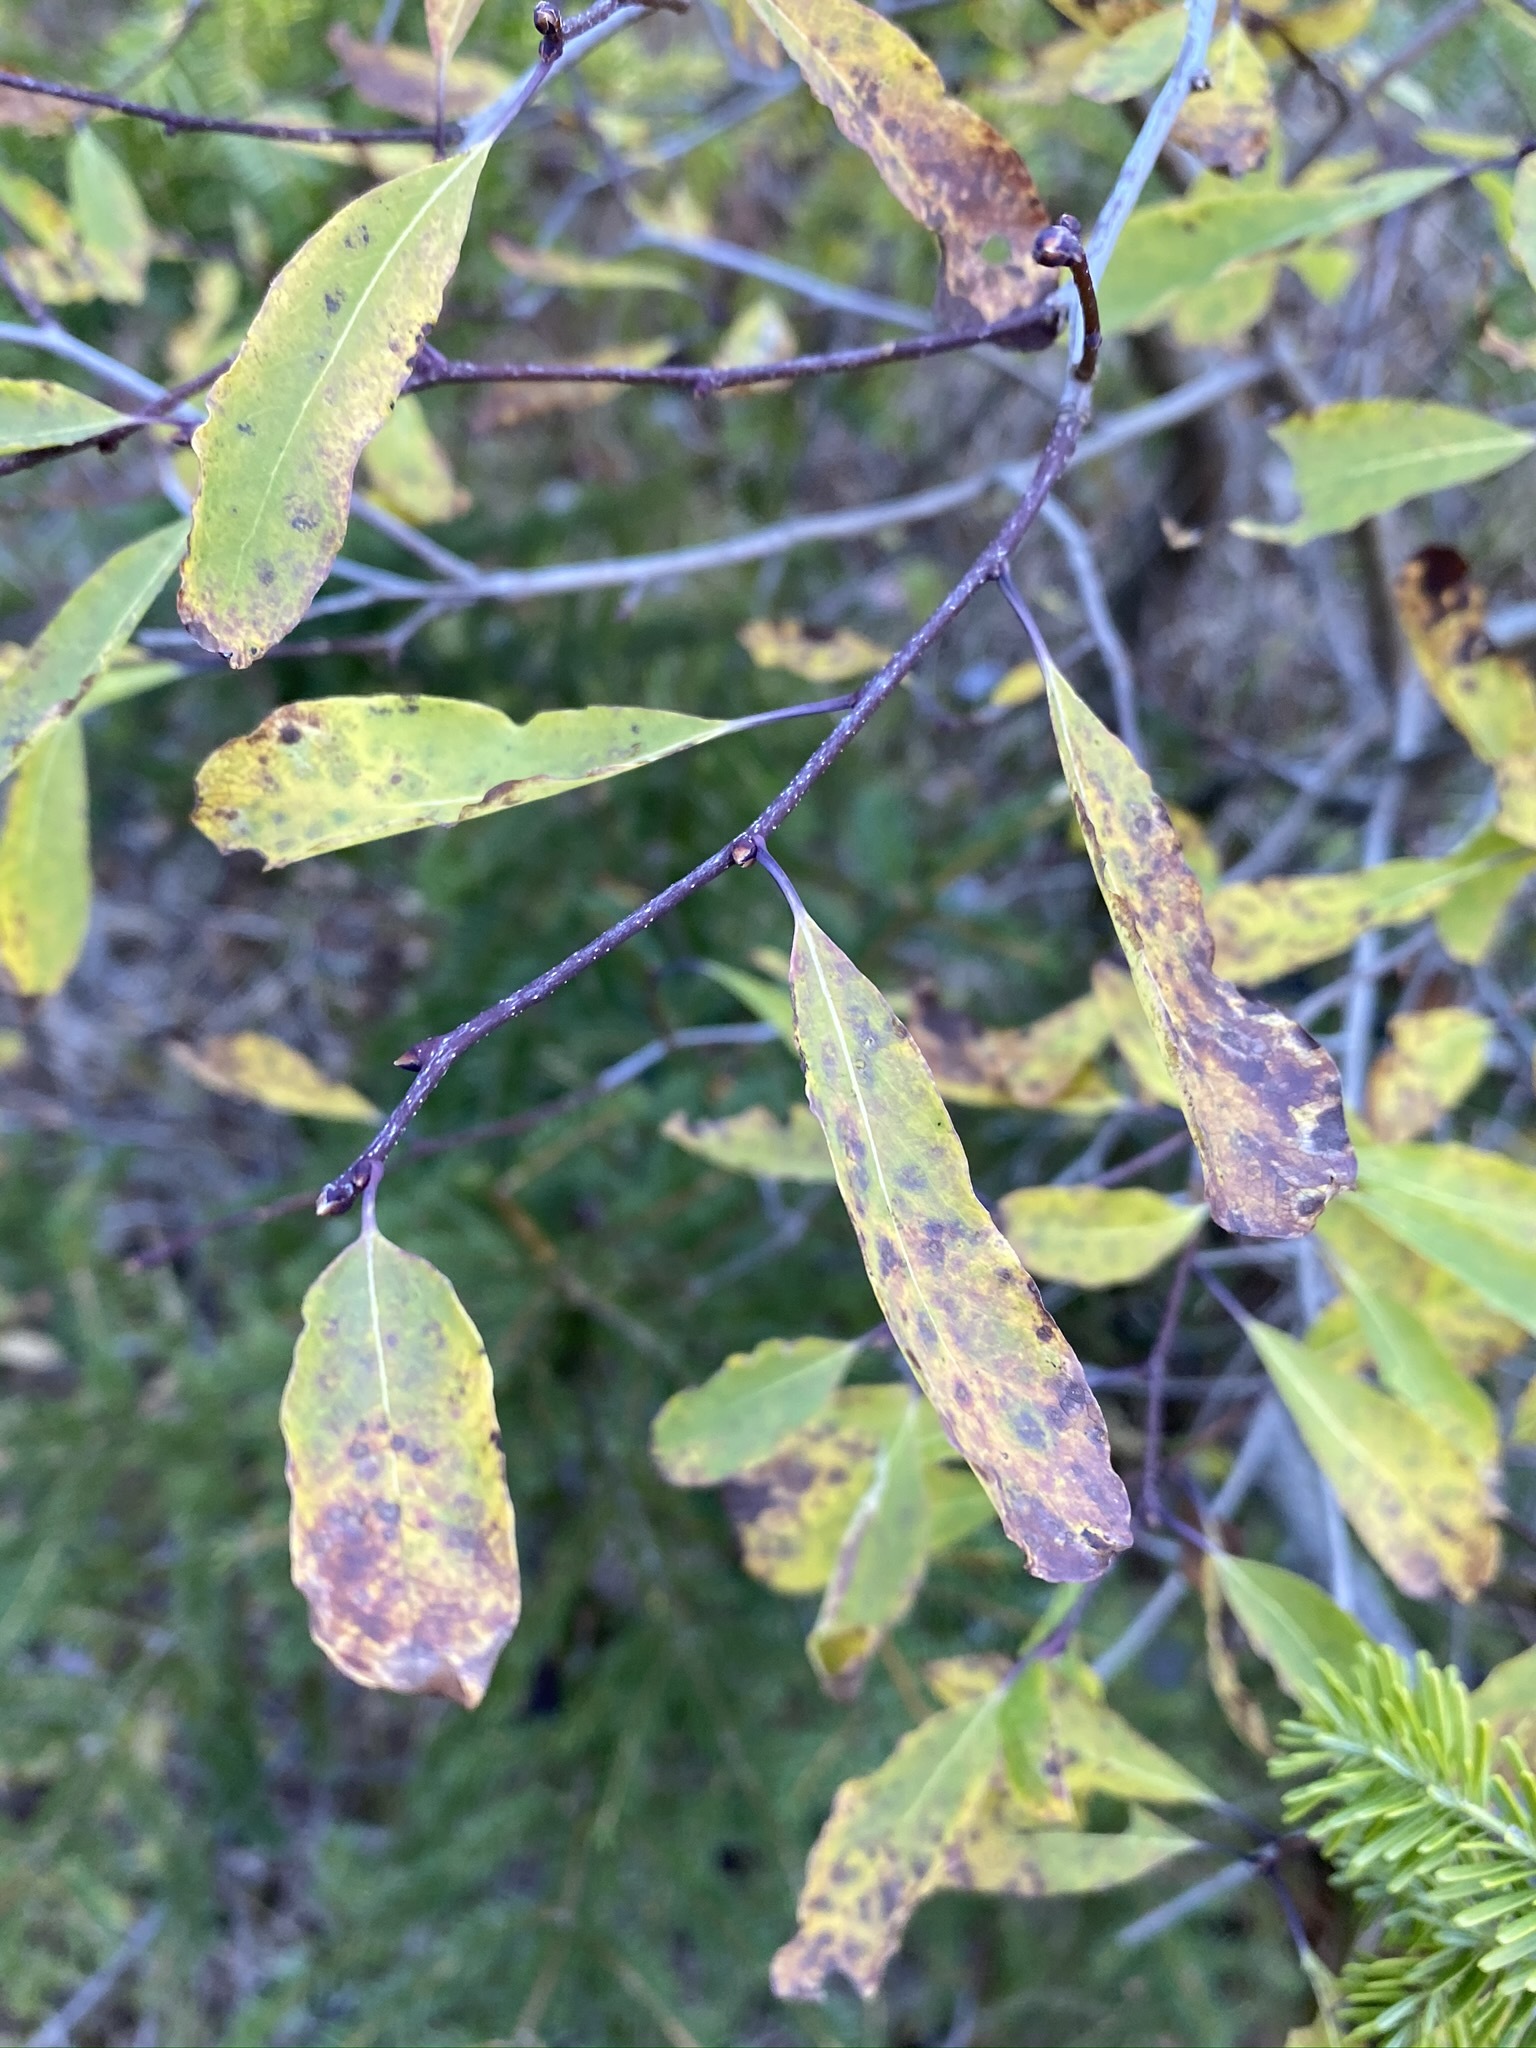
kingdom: Plantae
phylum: Tracheophyta
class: Magnoliopsida
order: Aquifoliales
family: Aquifoliaceae
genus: Ilex
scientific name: Ilex mucronata
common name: Catberry
